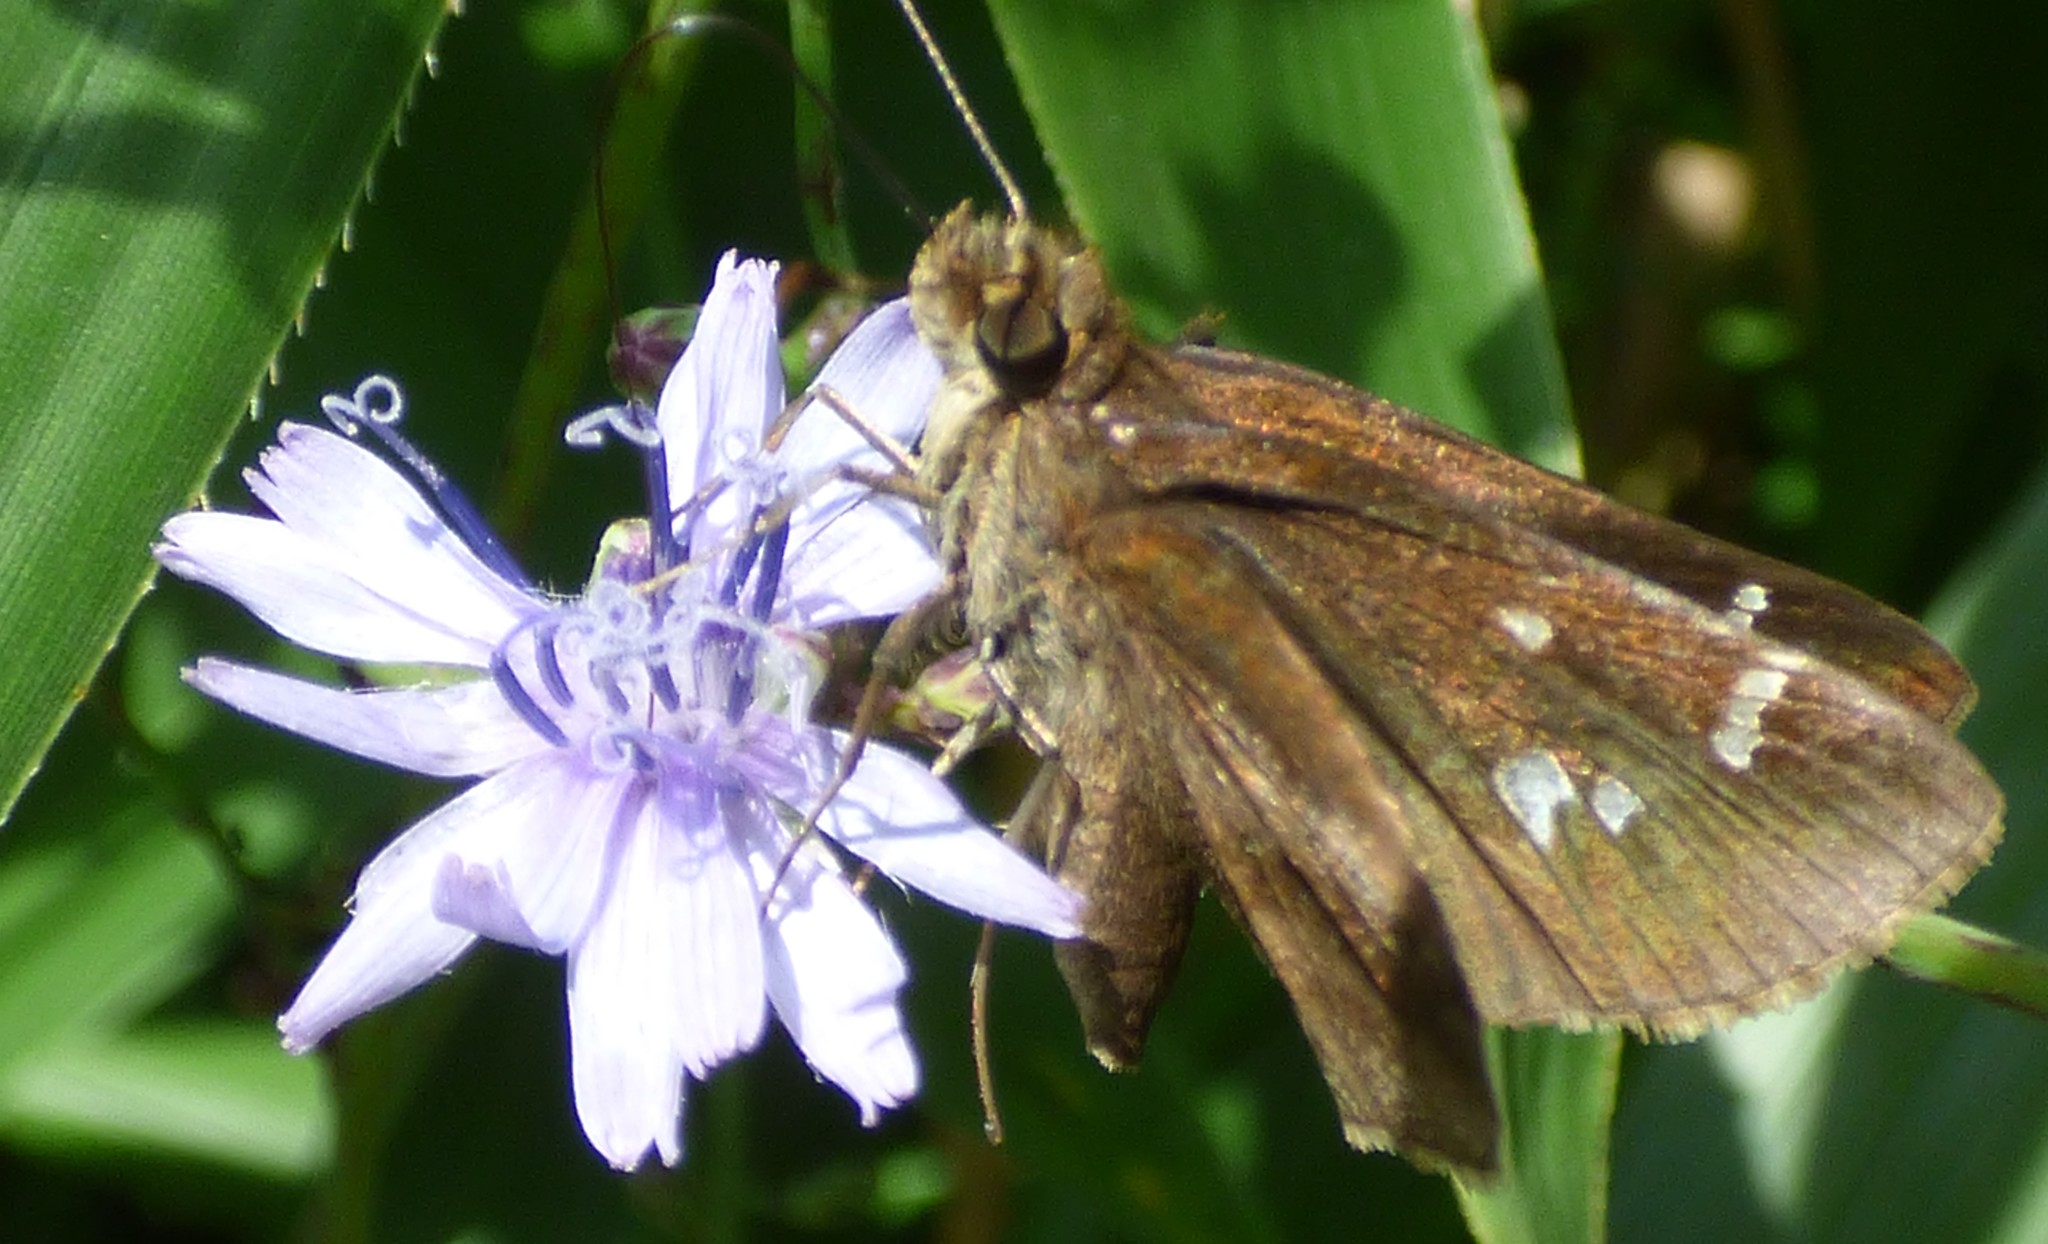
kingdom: Animalia
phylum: Arthropoda
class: Insecta
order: Lepidoptera
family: Hesperiidae
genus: Lerema
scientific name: Lerema accius
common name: Clouded skipper
